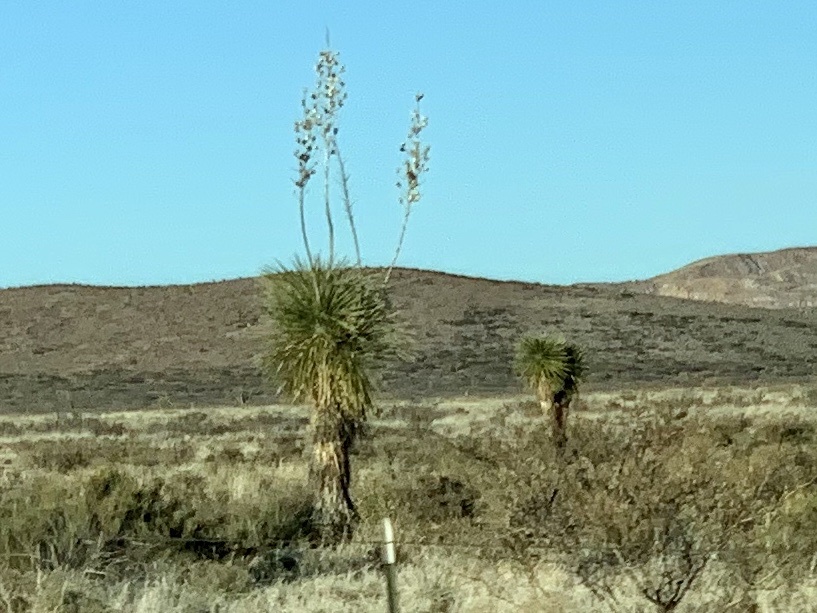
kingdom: Plantae
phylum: Tracheophyta
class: Liliopsida
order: Asparagales
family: Asparagaceae
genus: Yucca
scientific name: Yucca elata
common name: Palmella
